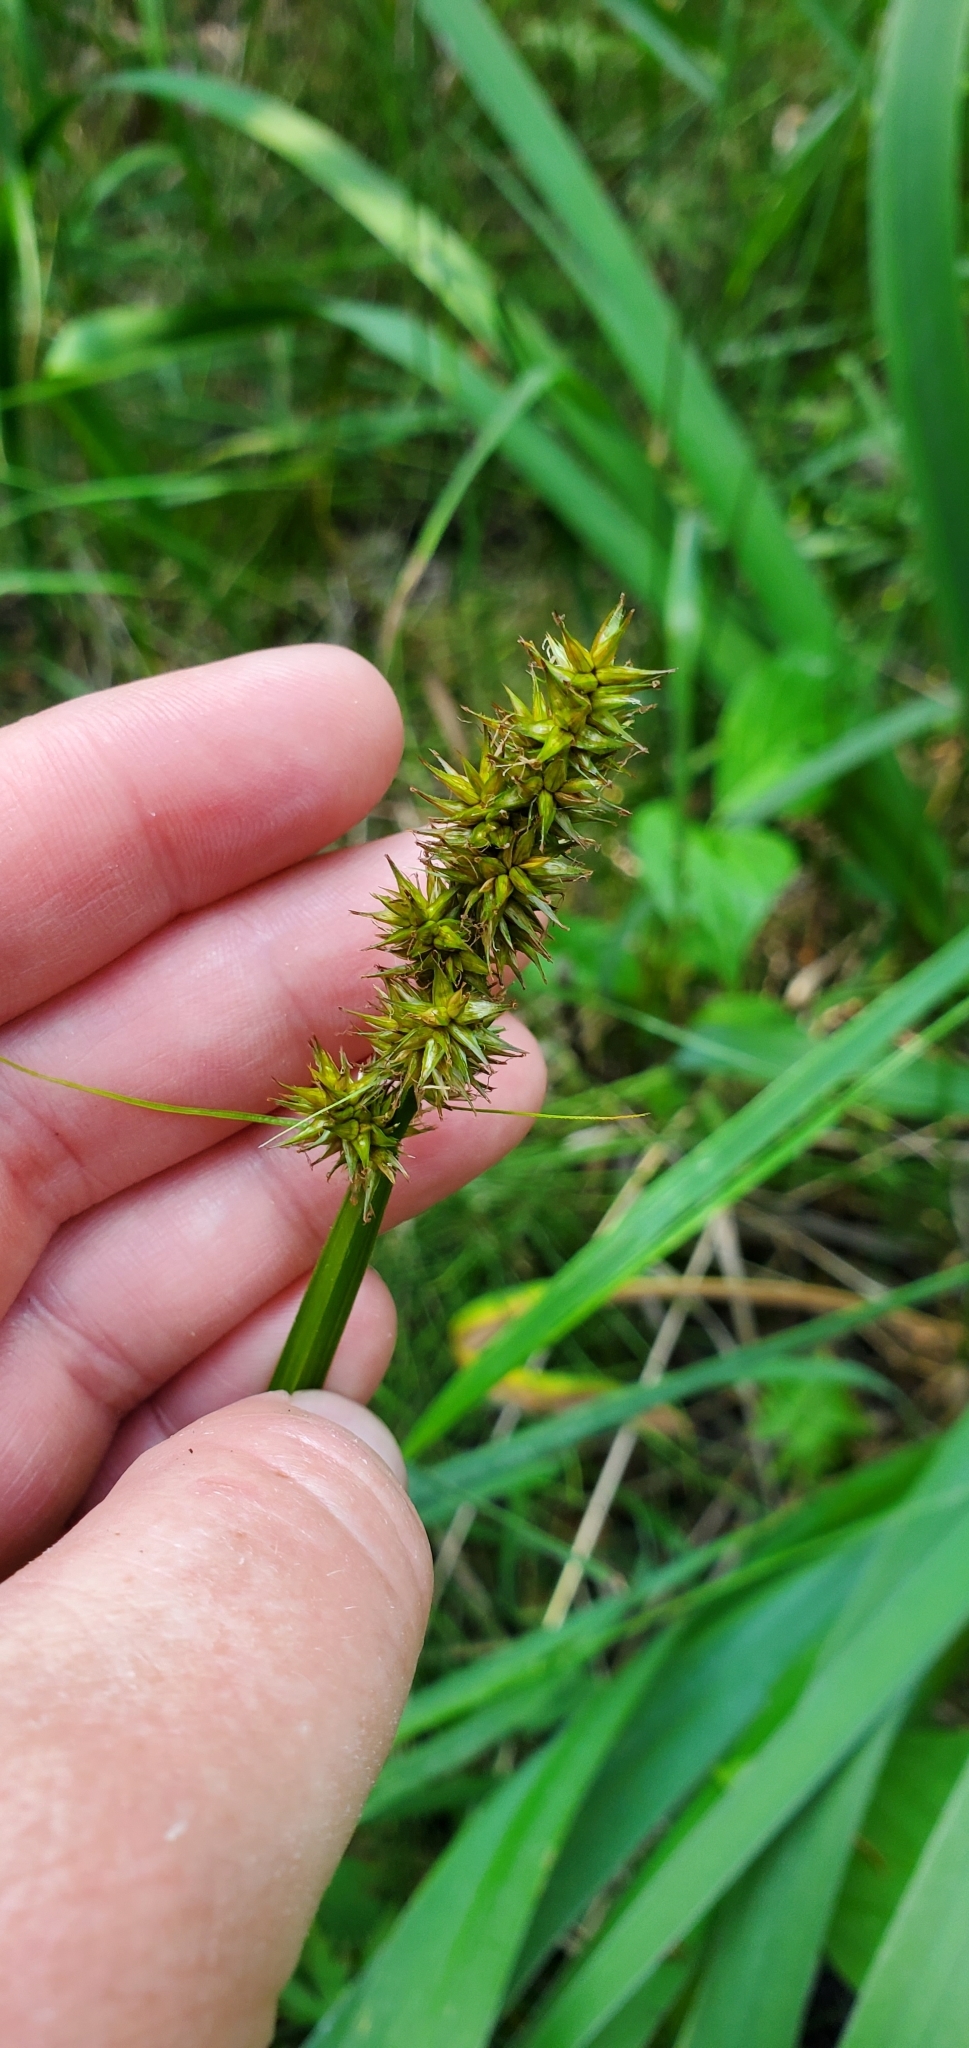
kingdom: Plantae
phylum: Tracheophyta
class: Liliopsida
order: Poales
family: Cyperaceae
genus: Carex
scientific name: Carex stipata
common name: Awl-fruited sedge
